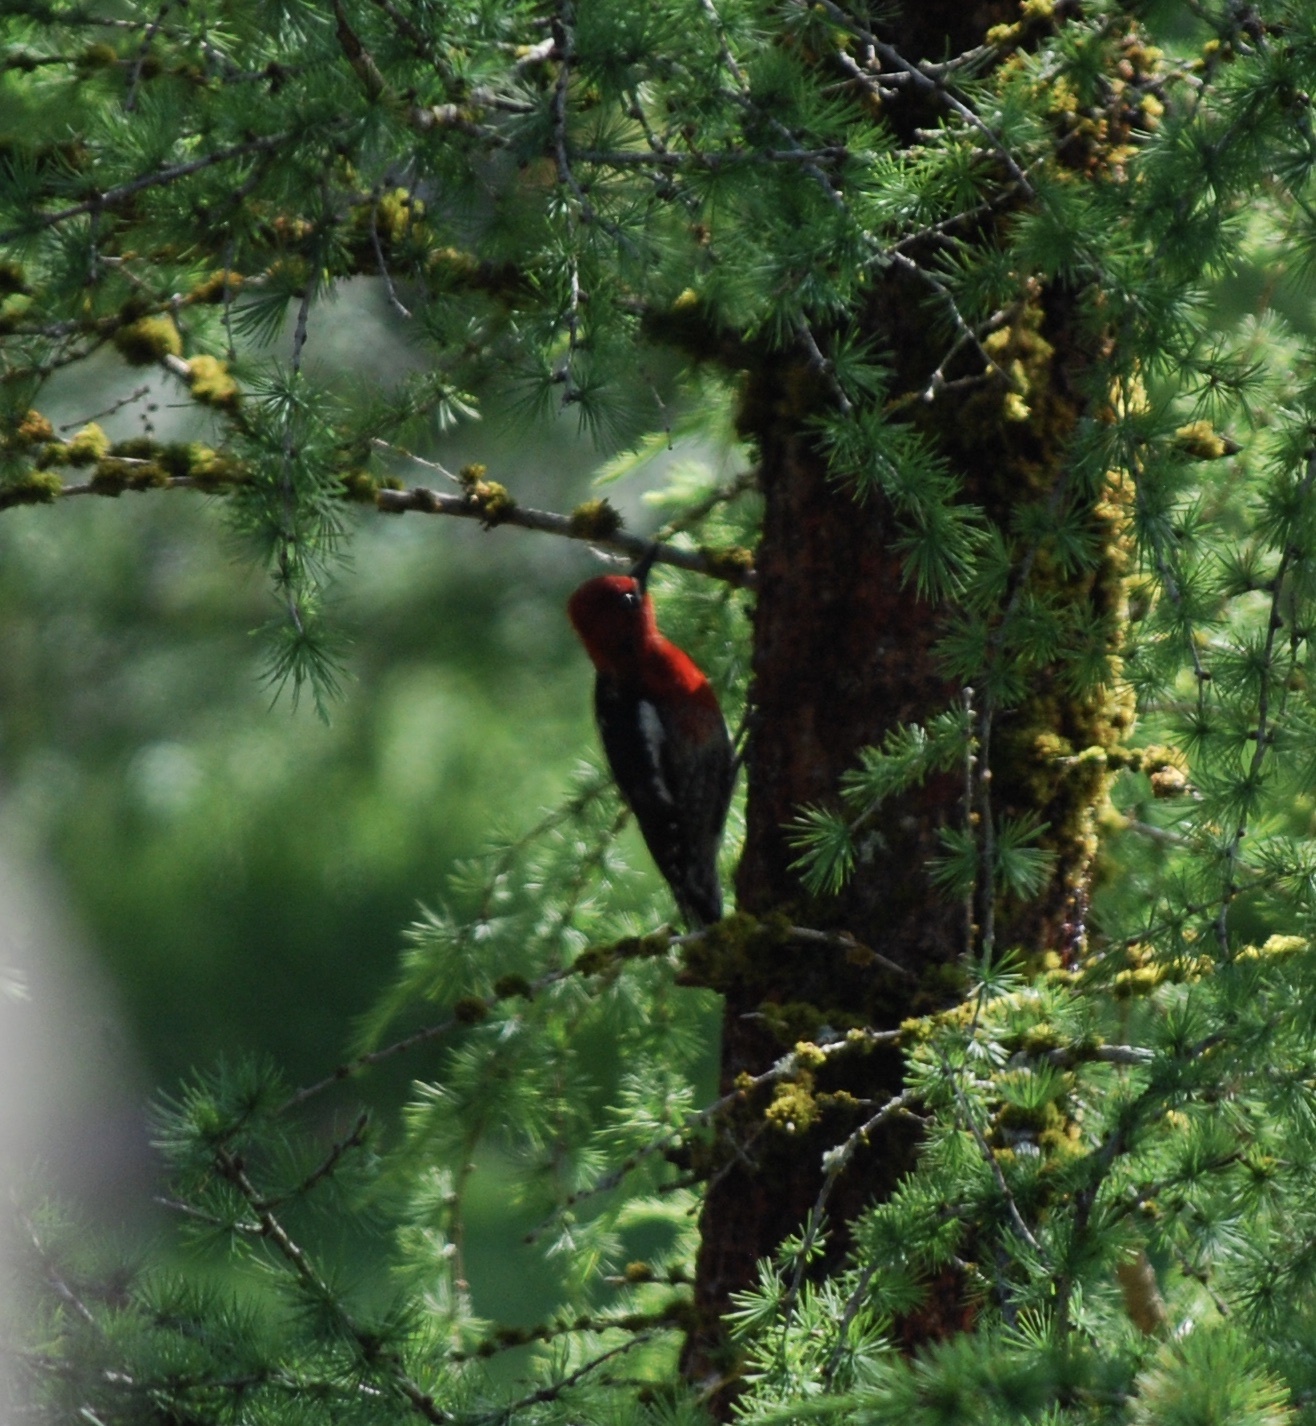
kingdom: Animalia
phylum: Chordata
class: Aves
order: Piciformes
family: Picidae
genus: Sphyrapicus
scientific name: Sphyrapicus ruber
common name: Red-breasted sapsucker
